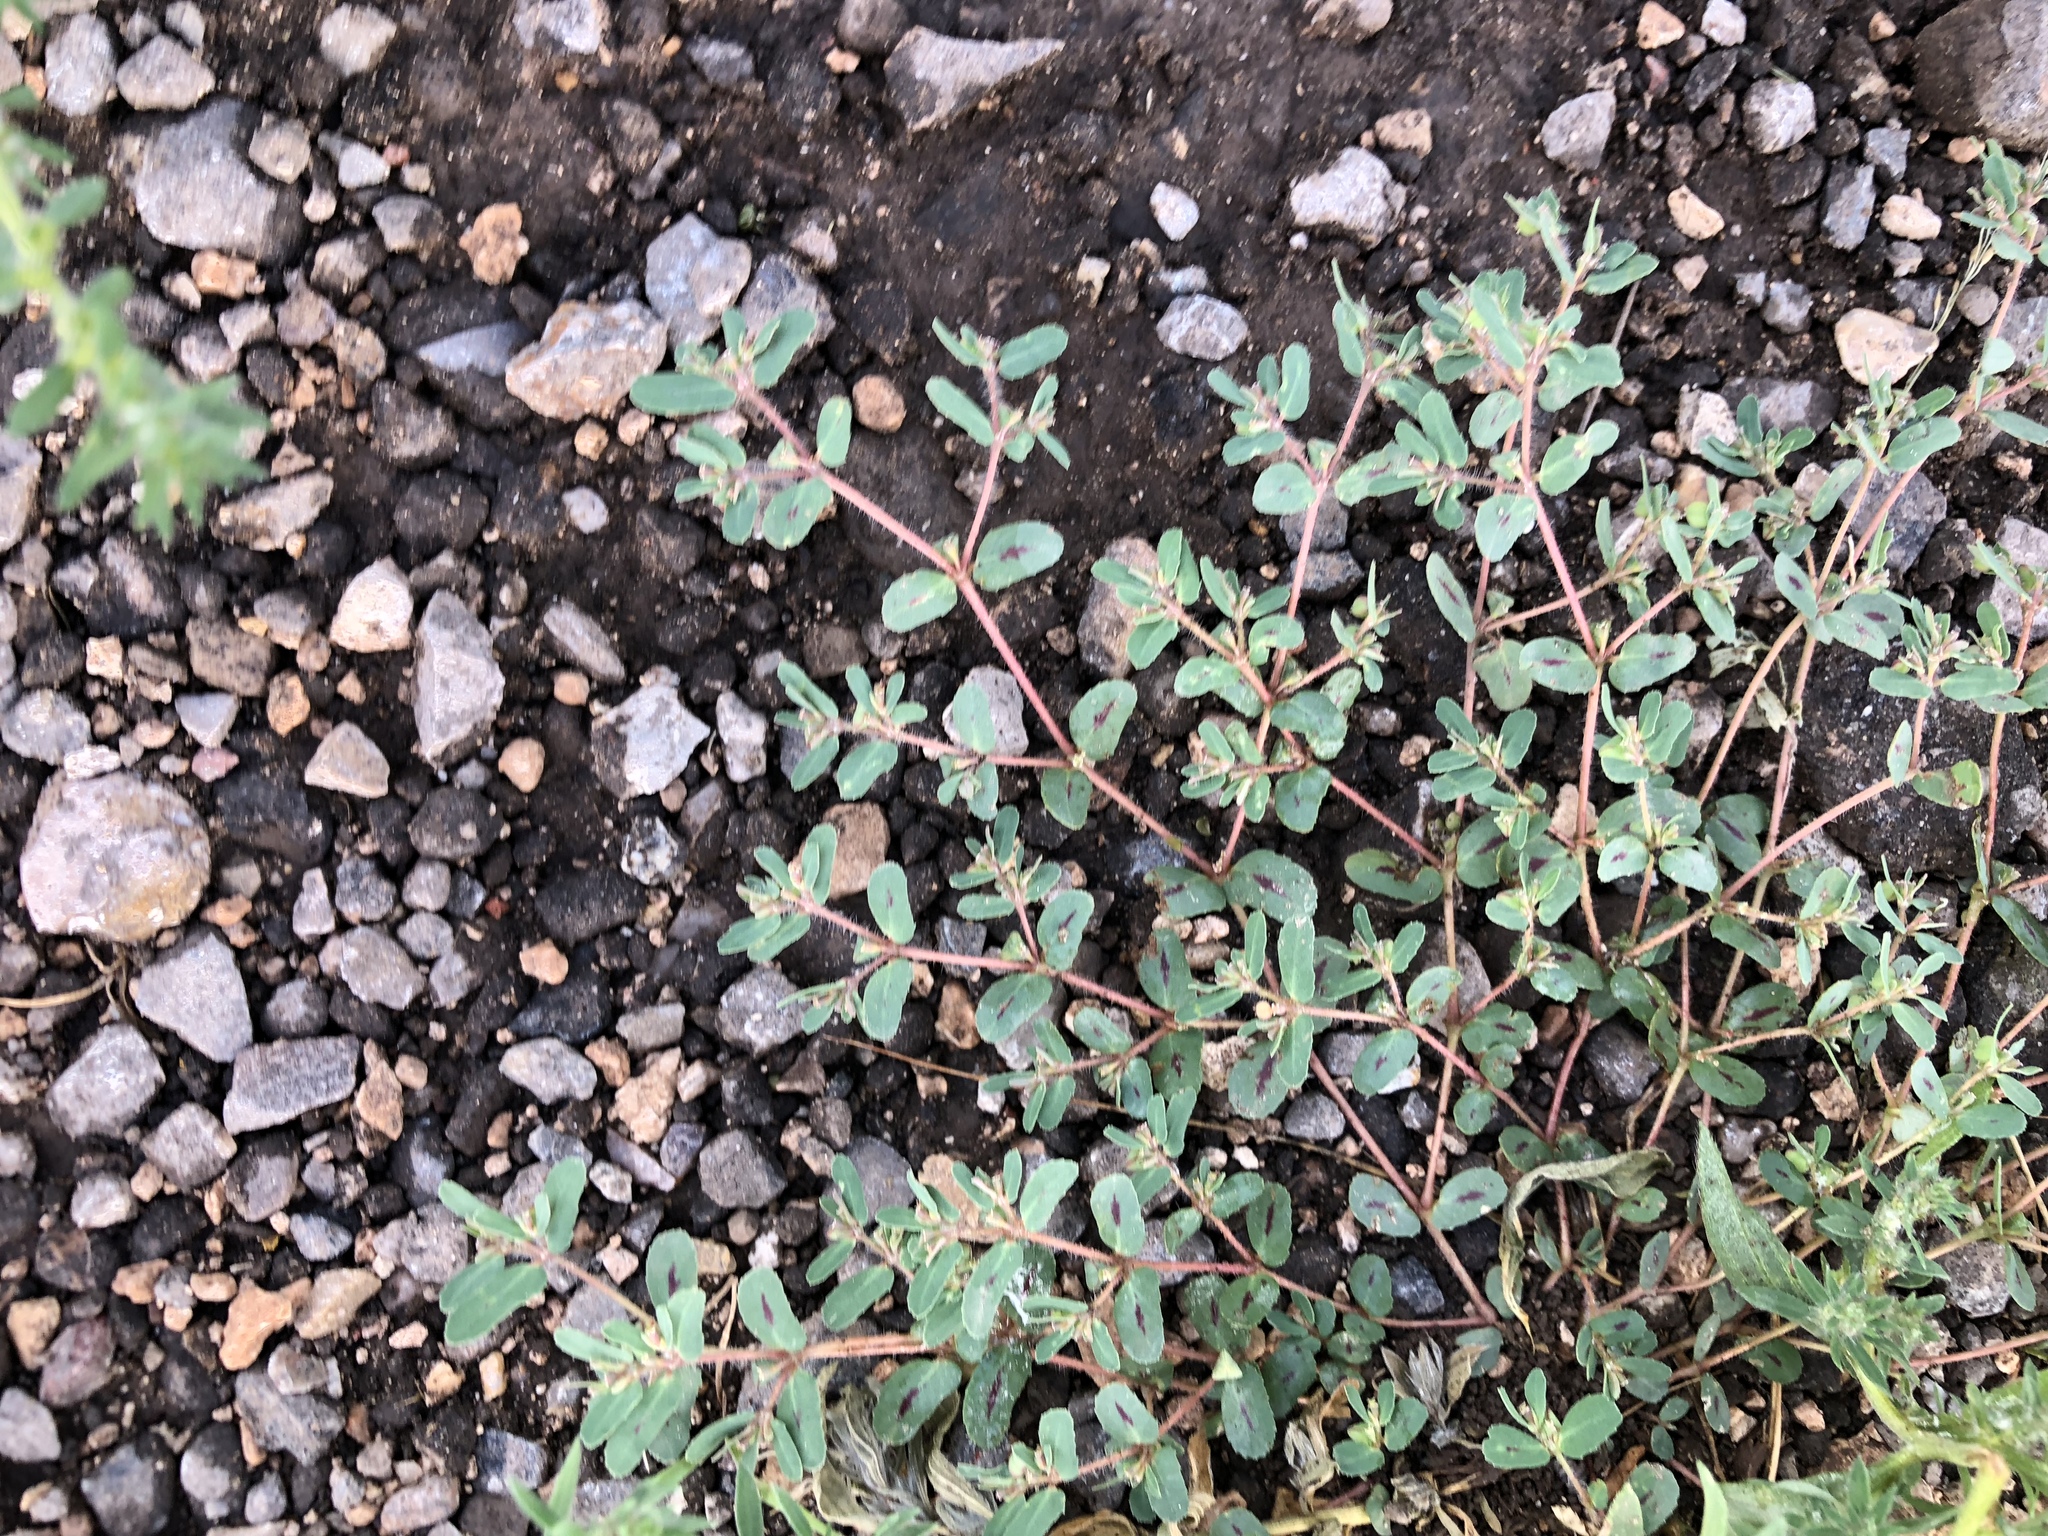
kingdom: Plantae
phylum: Tracheophyta
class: Magnoliopsida
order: Malpighiales
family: Euphorbiaceae
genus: Euphorbia
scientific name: Euphorbia serrula
